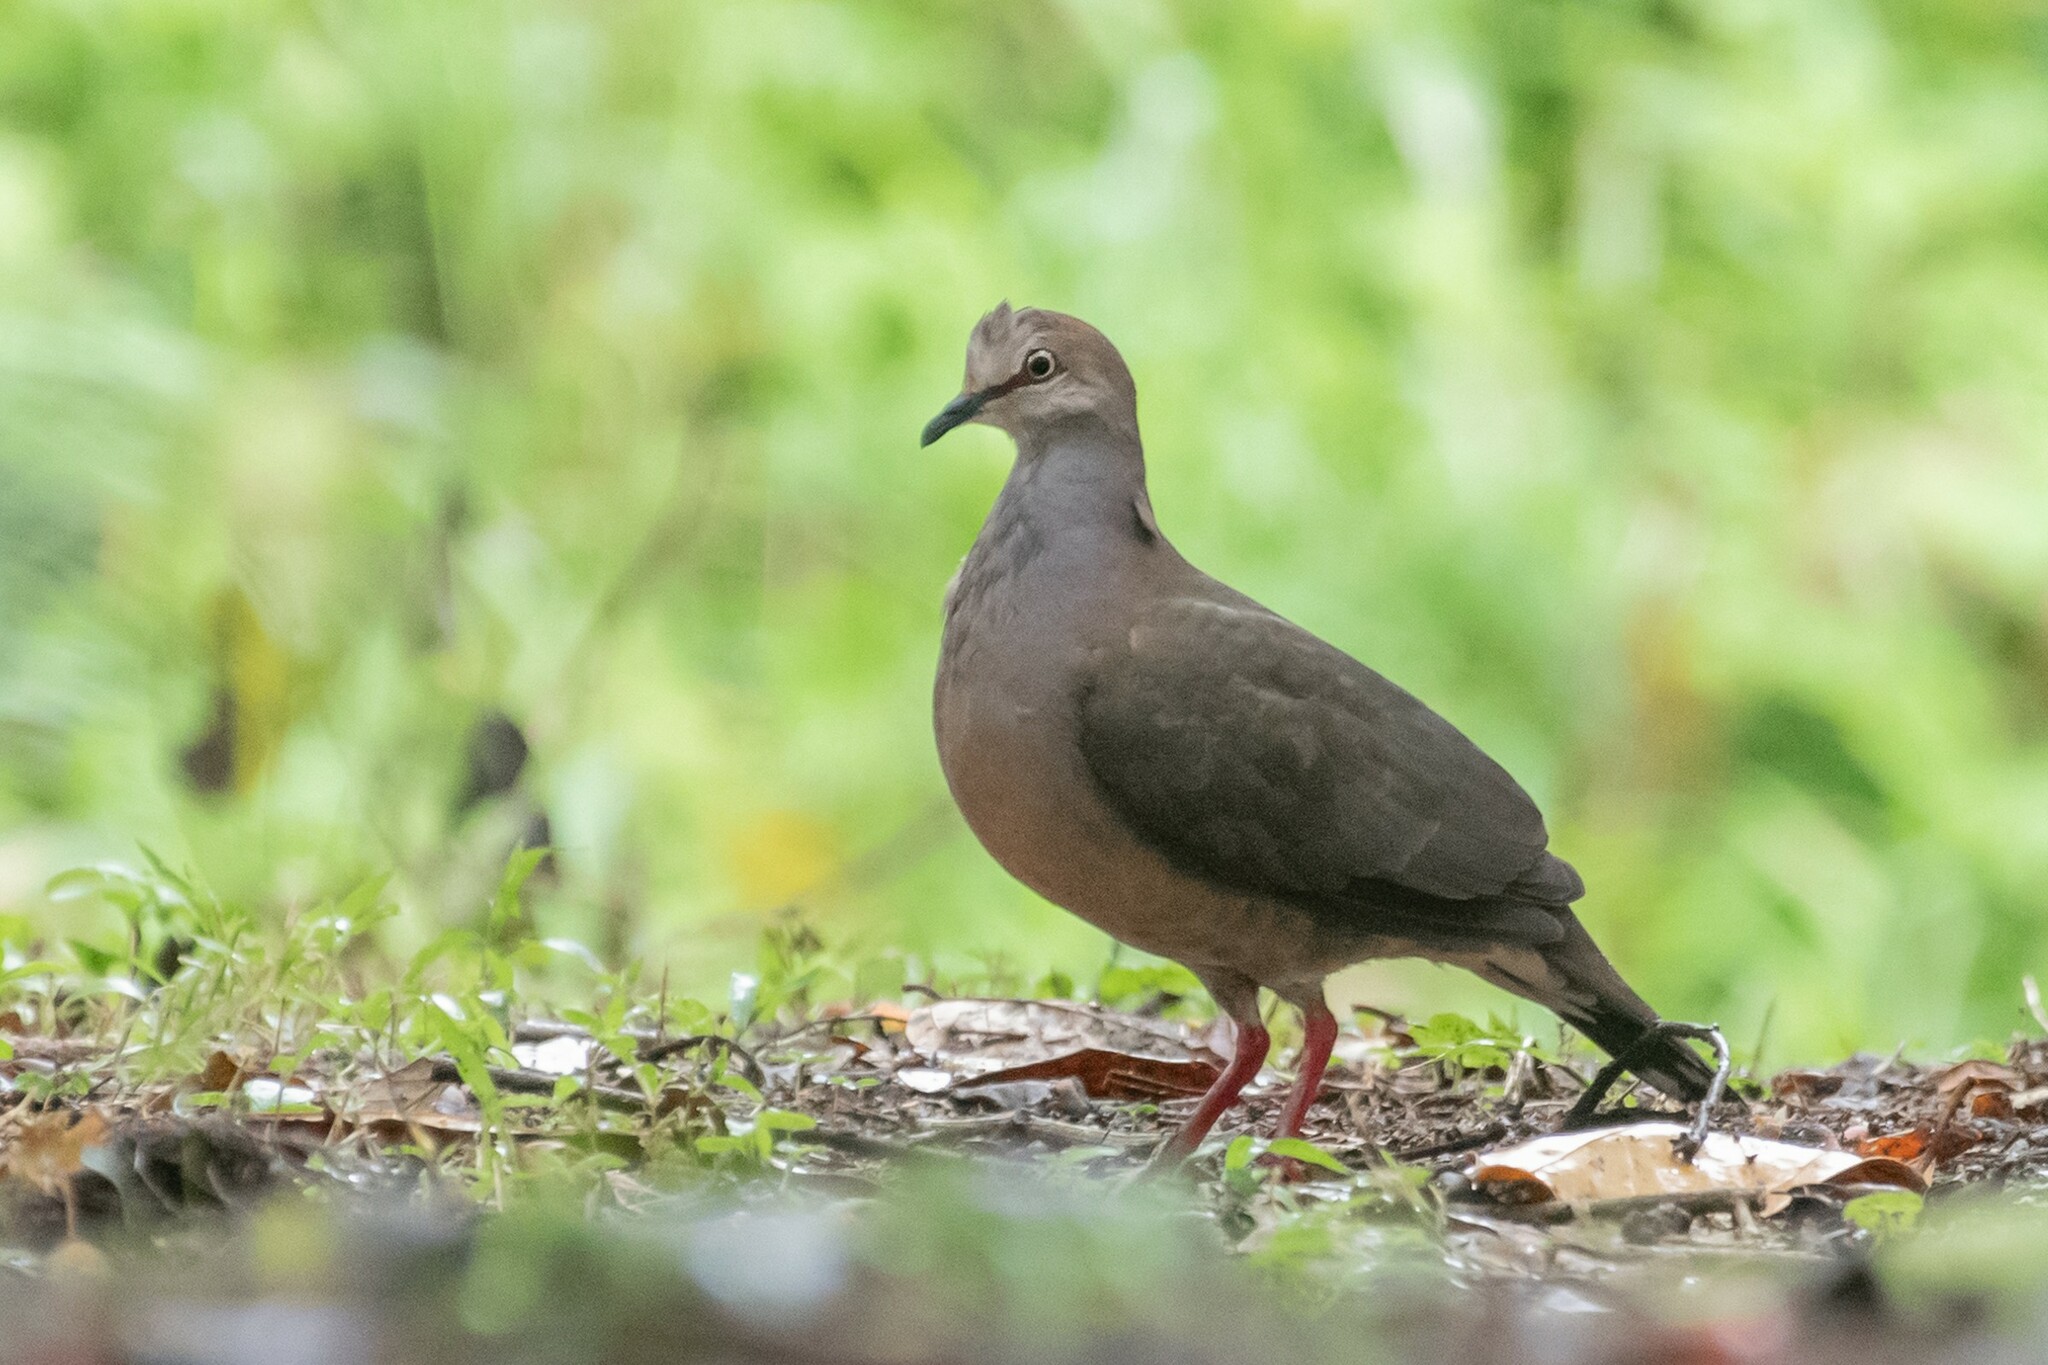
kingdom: Animalia
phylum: Chordata
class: Aves
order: Columbiformes
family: Columbidae
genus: Leptotila
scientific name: Leptotila cassinii
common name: Grey-chested dove
